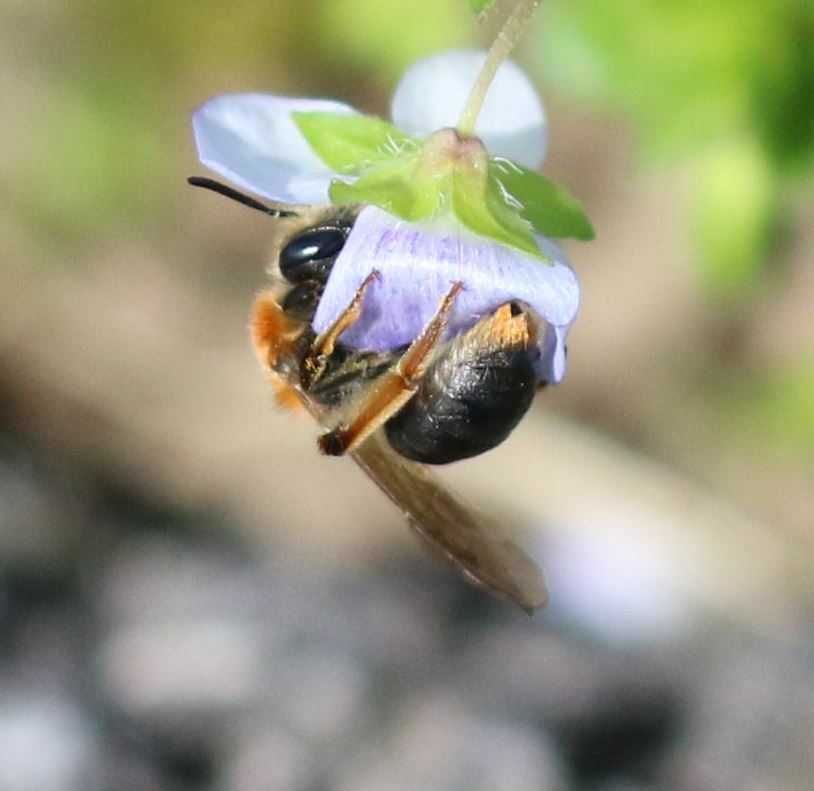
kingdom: Animalia
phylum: Arthropoda
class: Insecta
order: Hymenoptera
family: Andrenidae
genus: Andrena
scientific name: Andrena haemorrhoa
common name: Early mining bee
